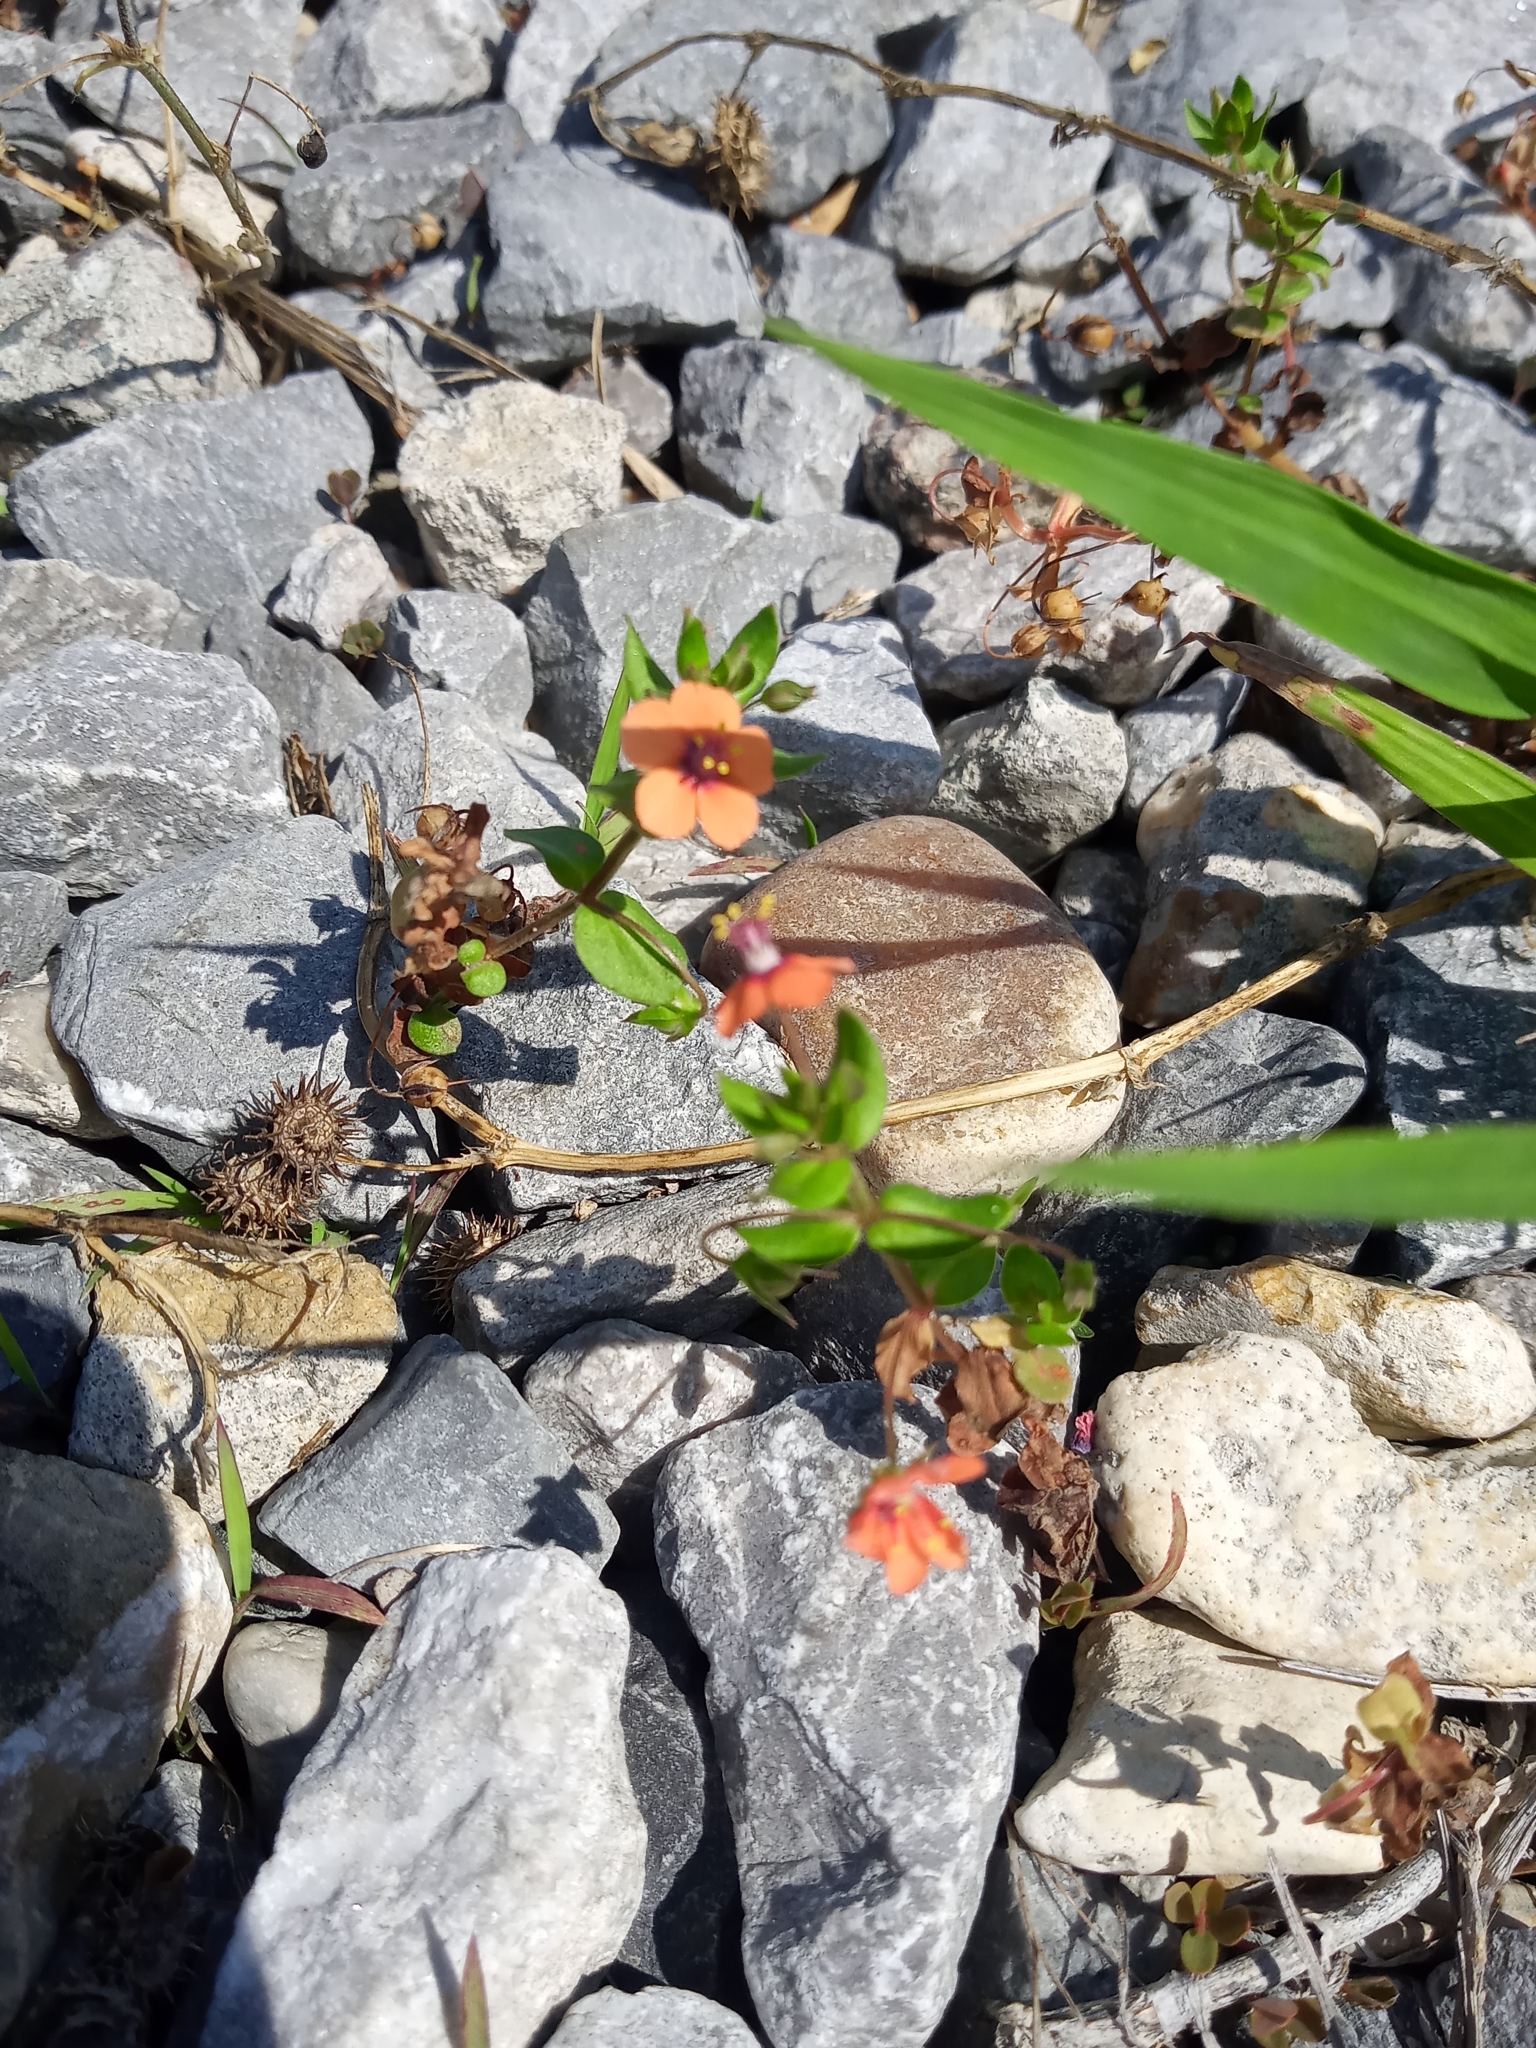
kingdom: Plantae
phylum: Tracheophyta
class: Magnoliopsida
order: Ericales
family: Primulaceae
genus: Lysimachia
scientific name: Lysimachia arvensis
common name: Scarlet pimpernel
